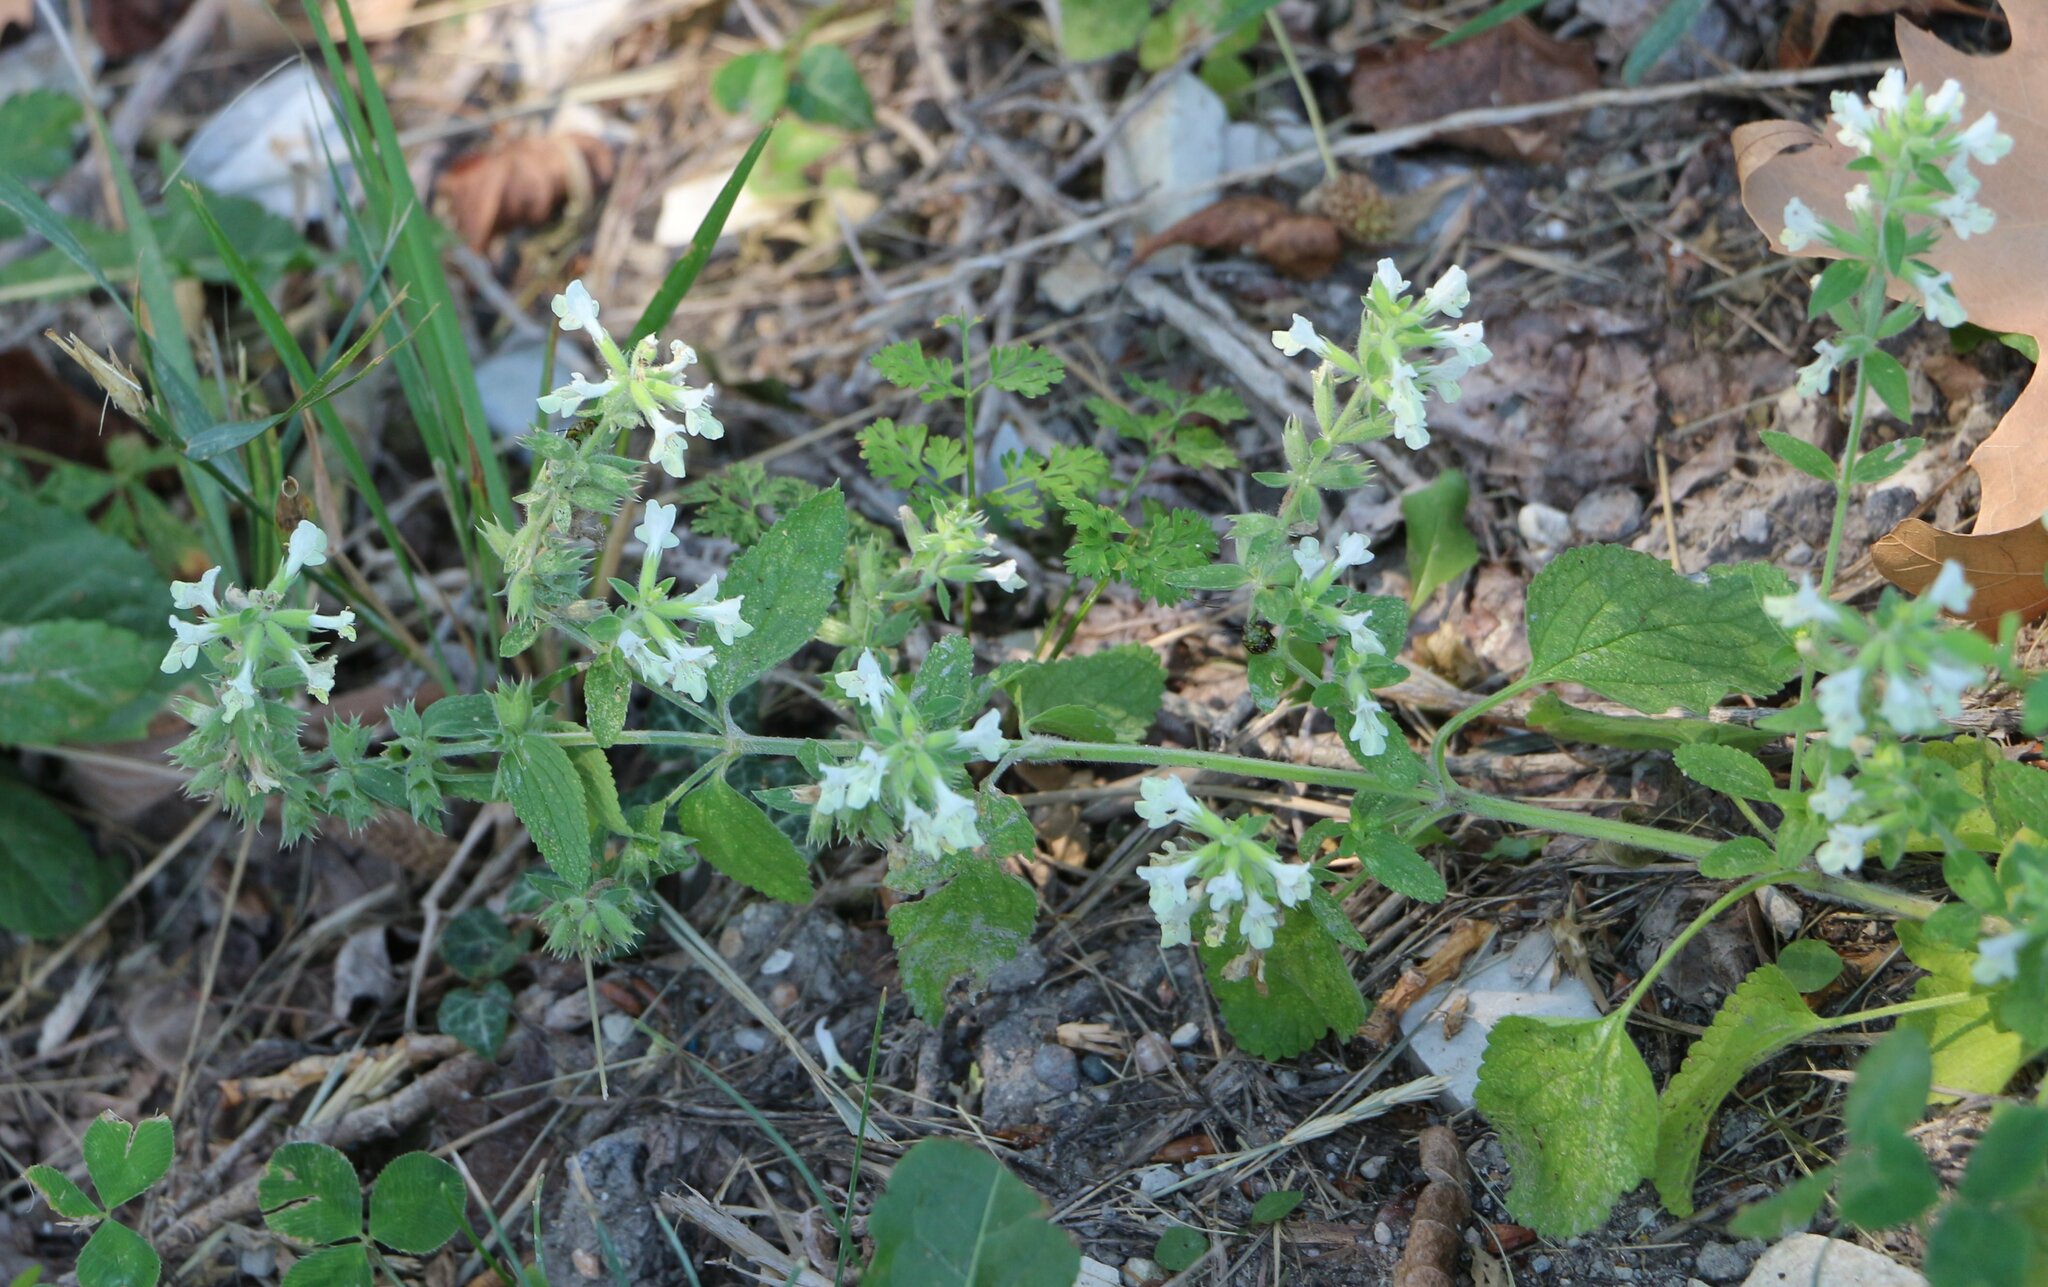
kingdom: Plantae
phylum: Tracheophyta
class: Magnoliopsida
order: Lamiales
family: Lamiaceae
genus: Stachys
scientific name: Stachys annua
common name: Annual yellow-woundwort
